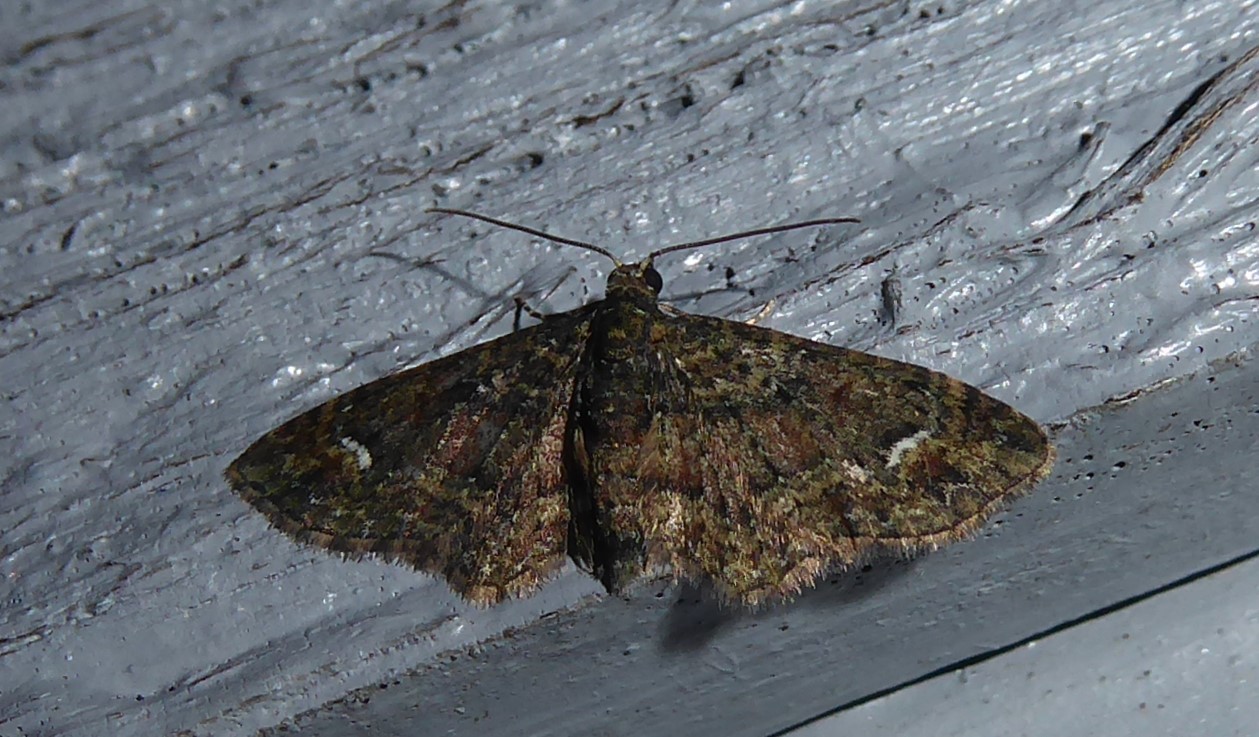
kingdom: Animalia
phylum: Arthropoda
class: Insecta
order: Lepidoptera
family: Geometridae
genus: Pasiphilodes
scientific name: Pasiphilodes testulata
